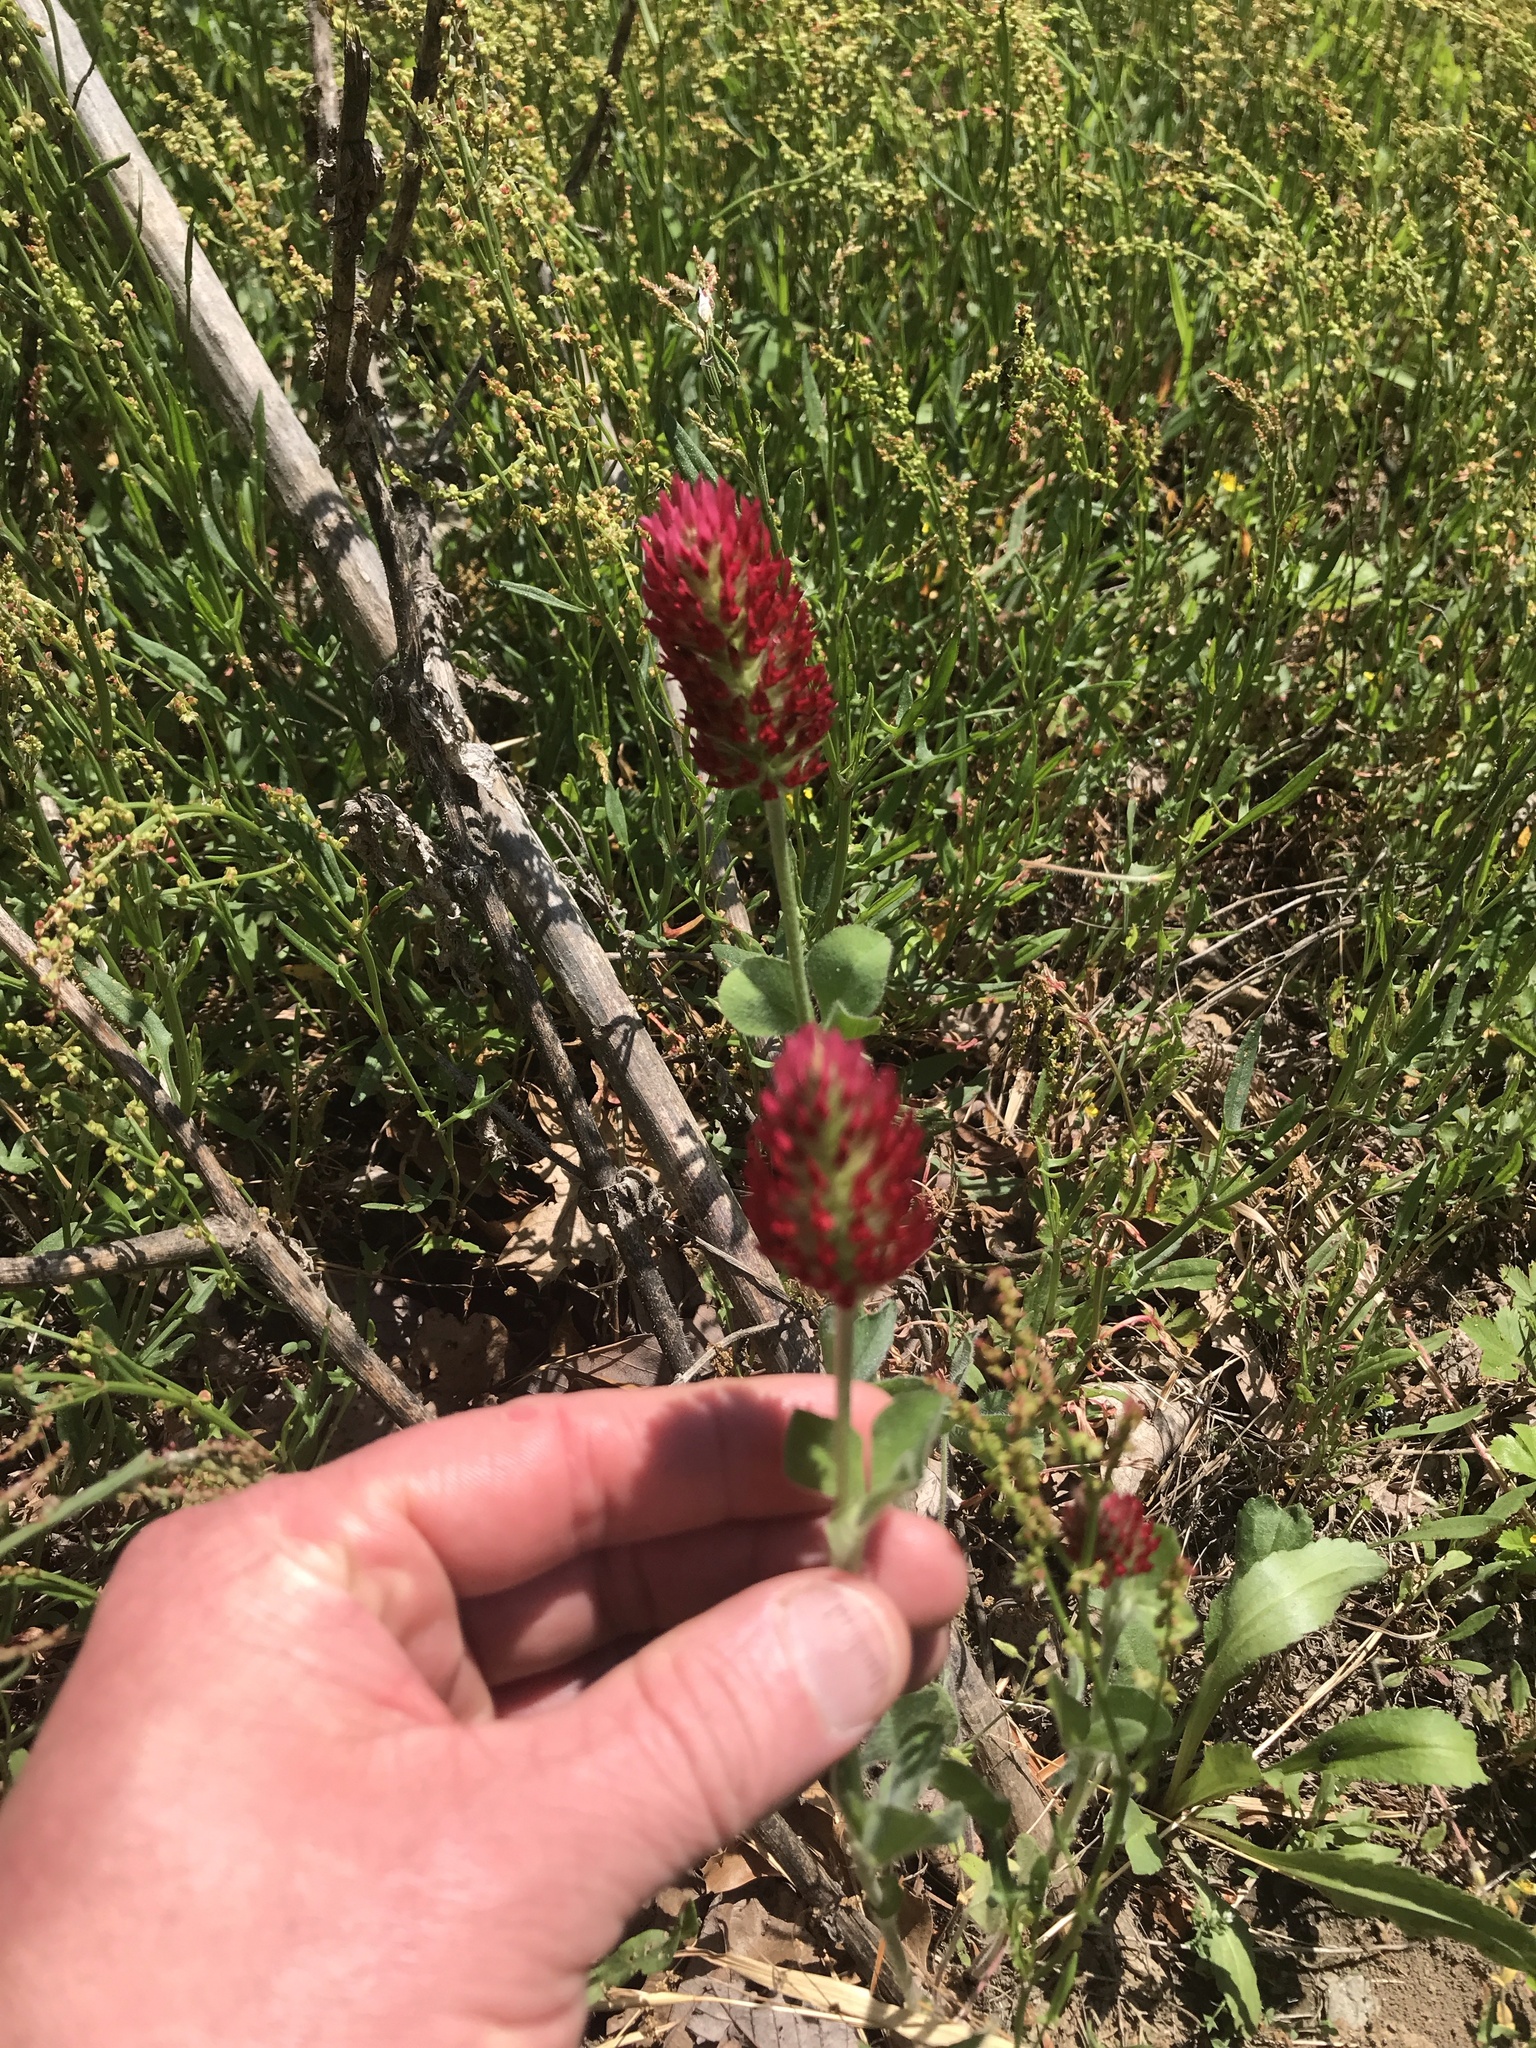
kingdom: Plantae
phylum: Tracheophyta
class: Magnoliopsida
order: Fabales
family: Fabaceae
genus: Trifolium
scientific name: Trifolium incarnatum
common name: Crimson clover
